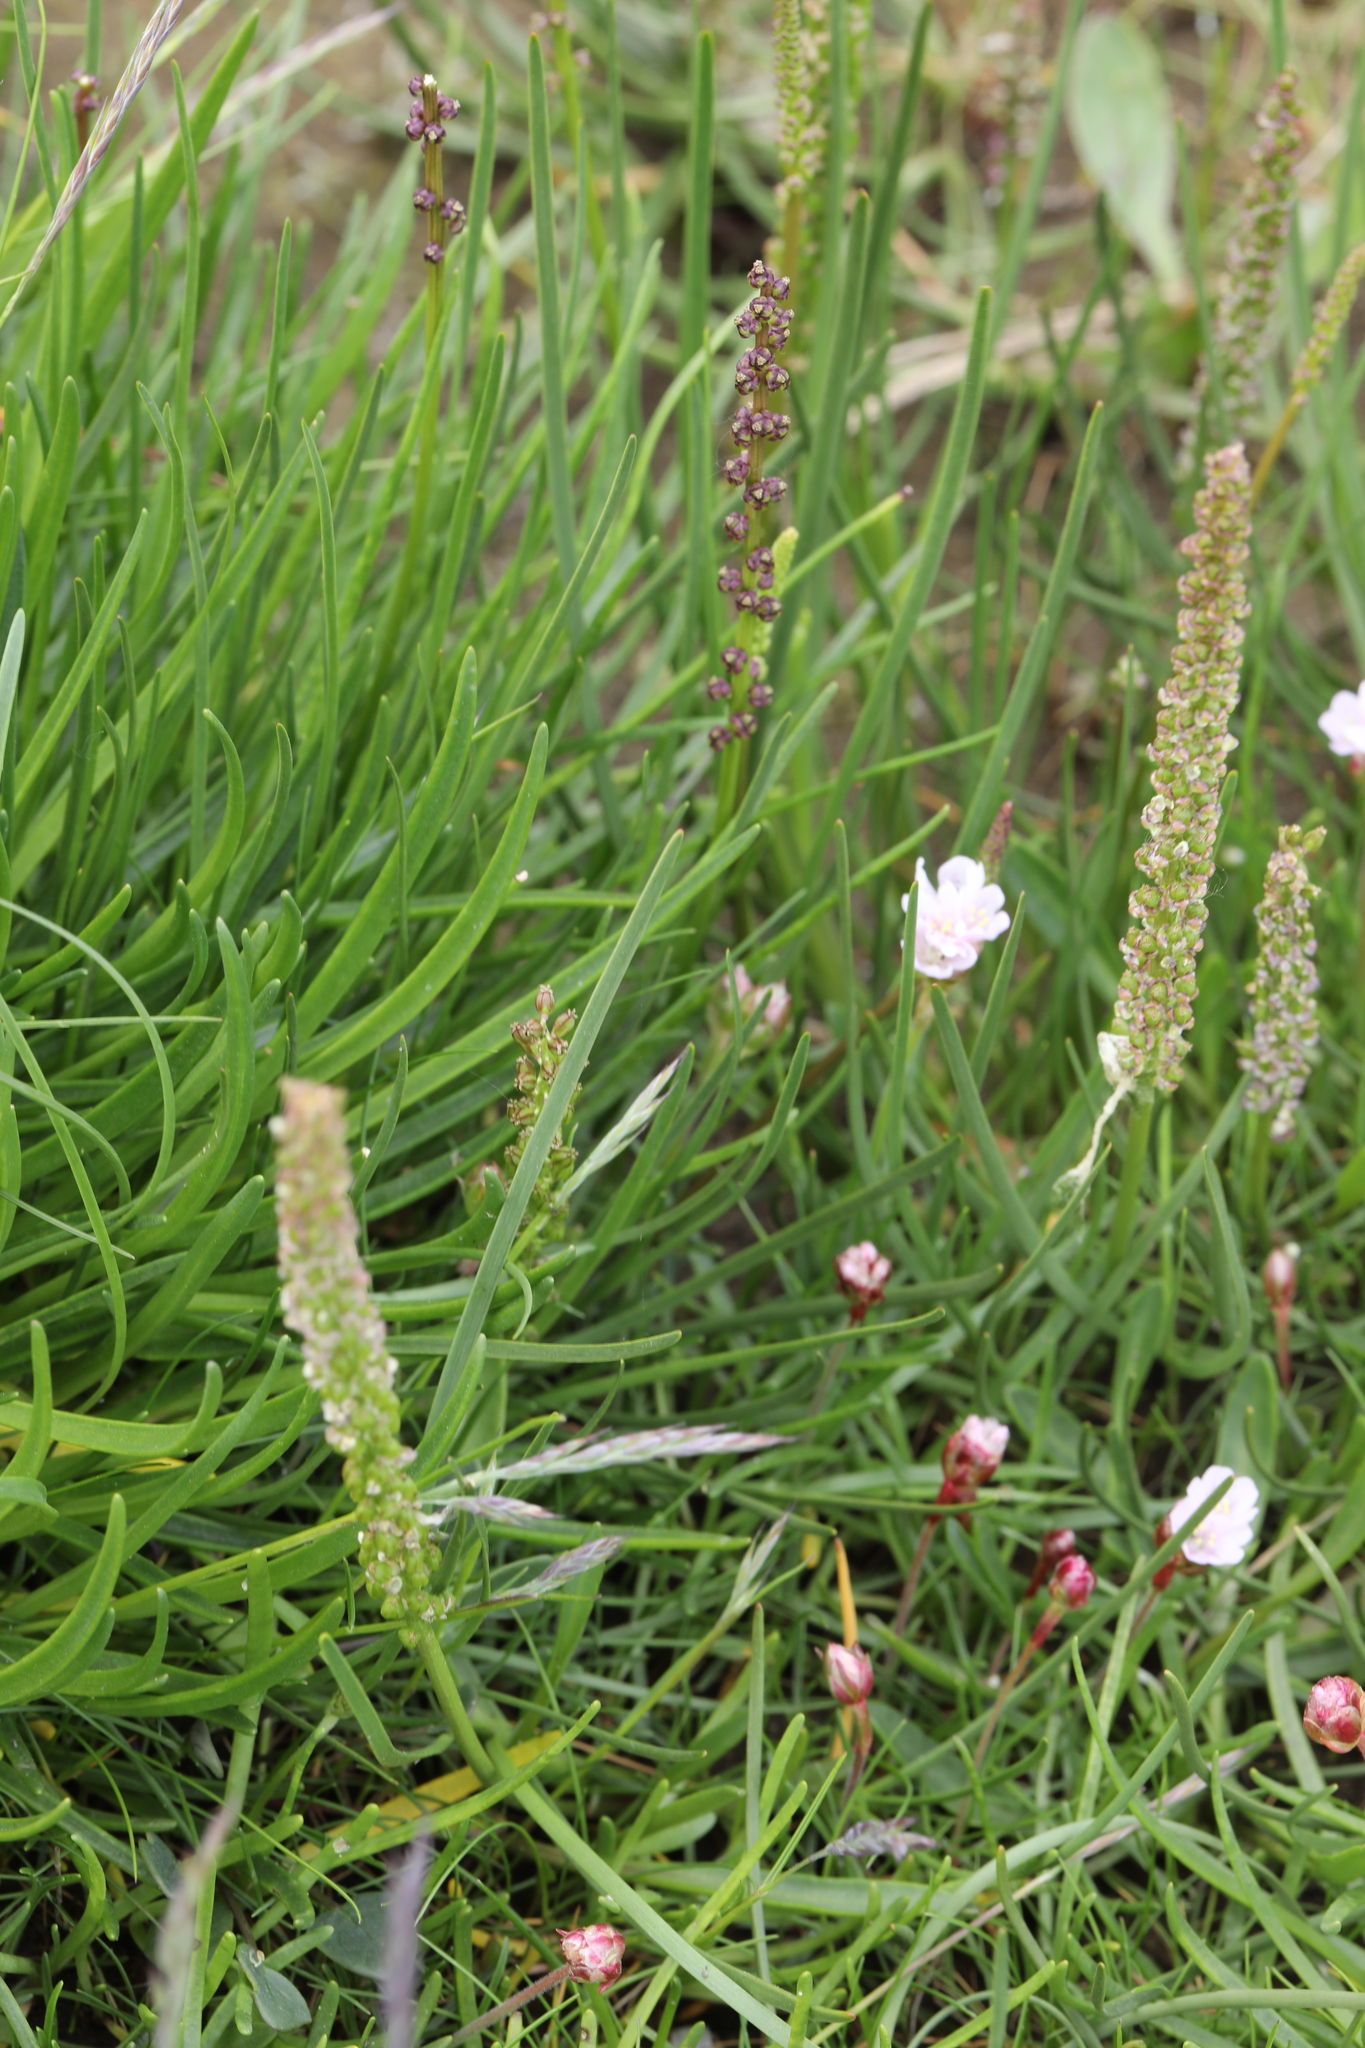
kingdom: Plantae
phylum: Tracheophyta
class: Liliopsida
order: Alismatales
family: Juncaginaceae
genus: Triglochin
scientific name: Triglochin maritima
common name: Sea arrowgrass
